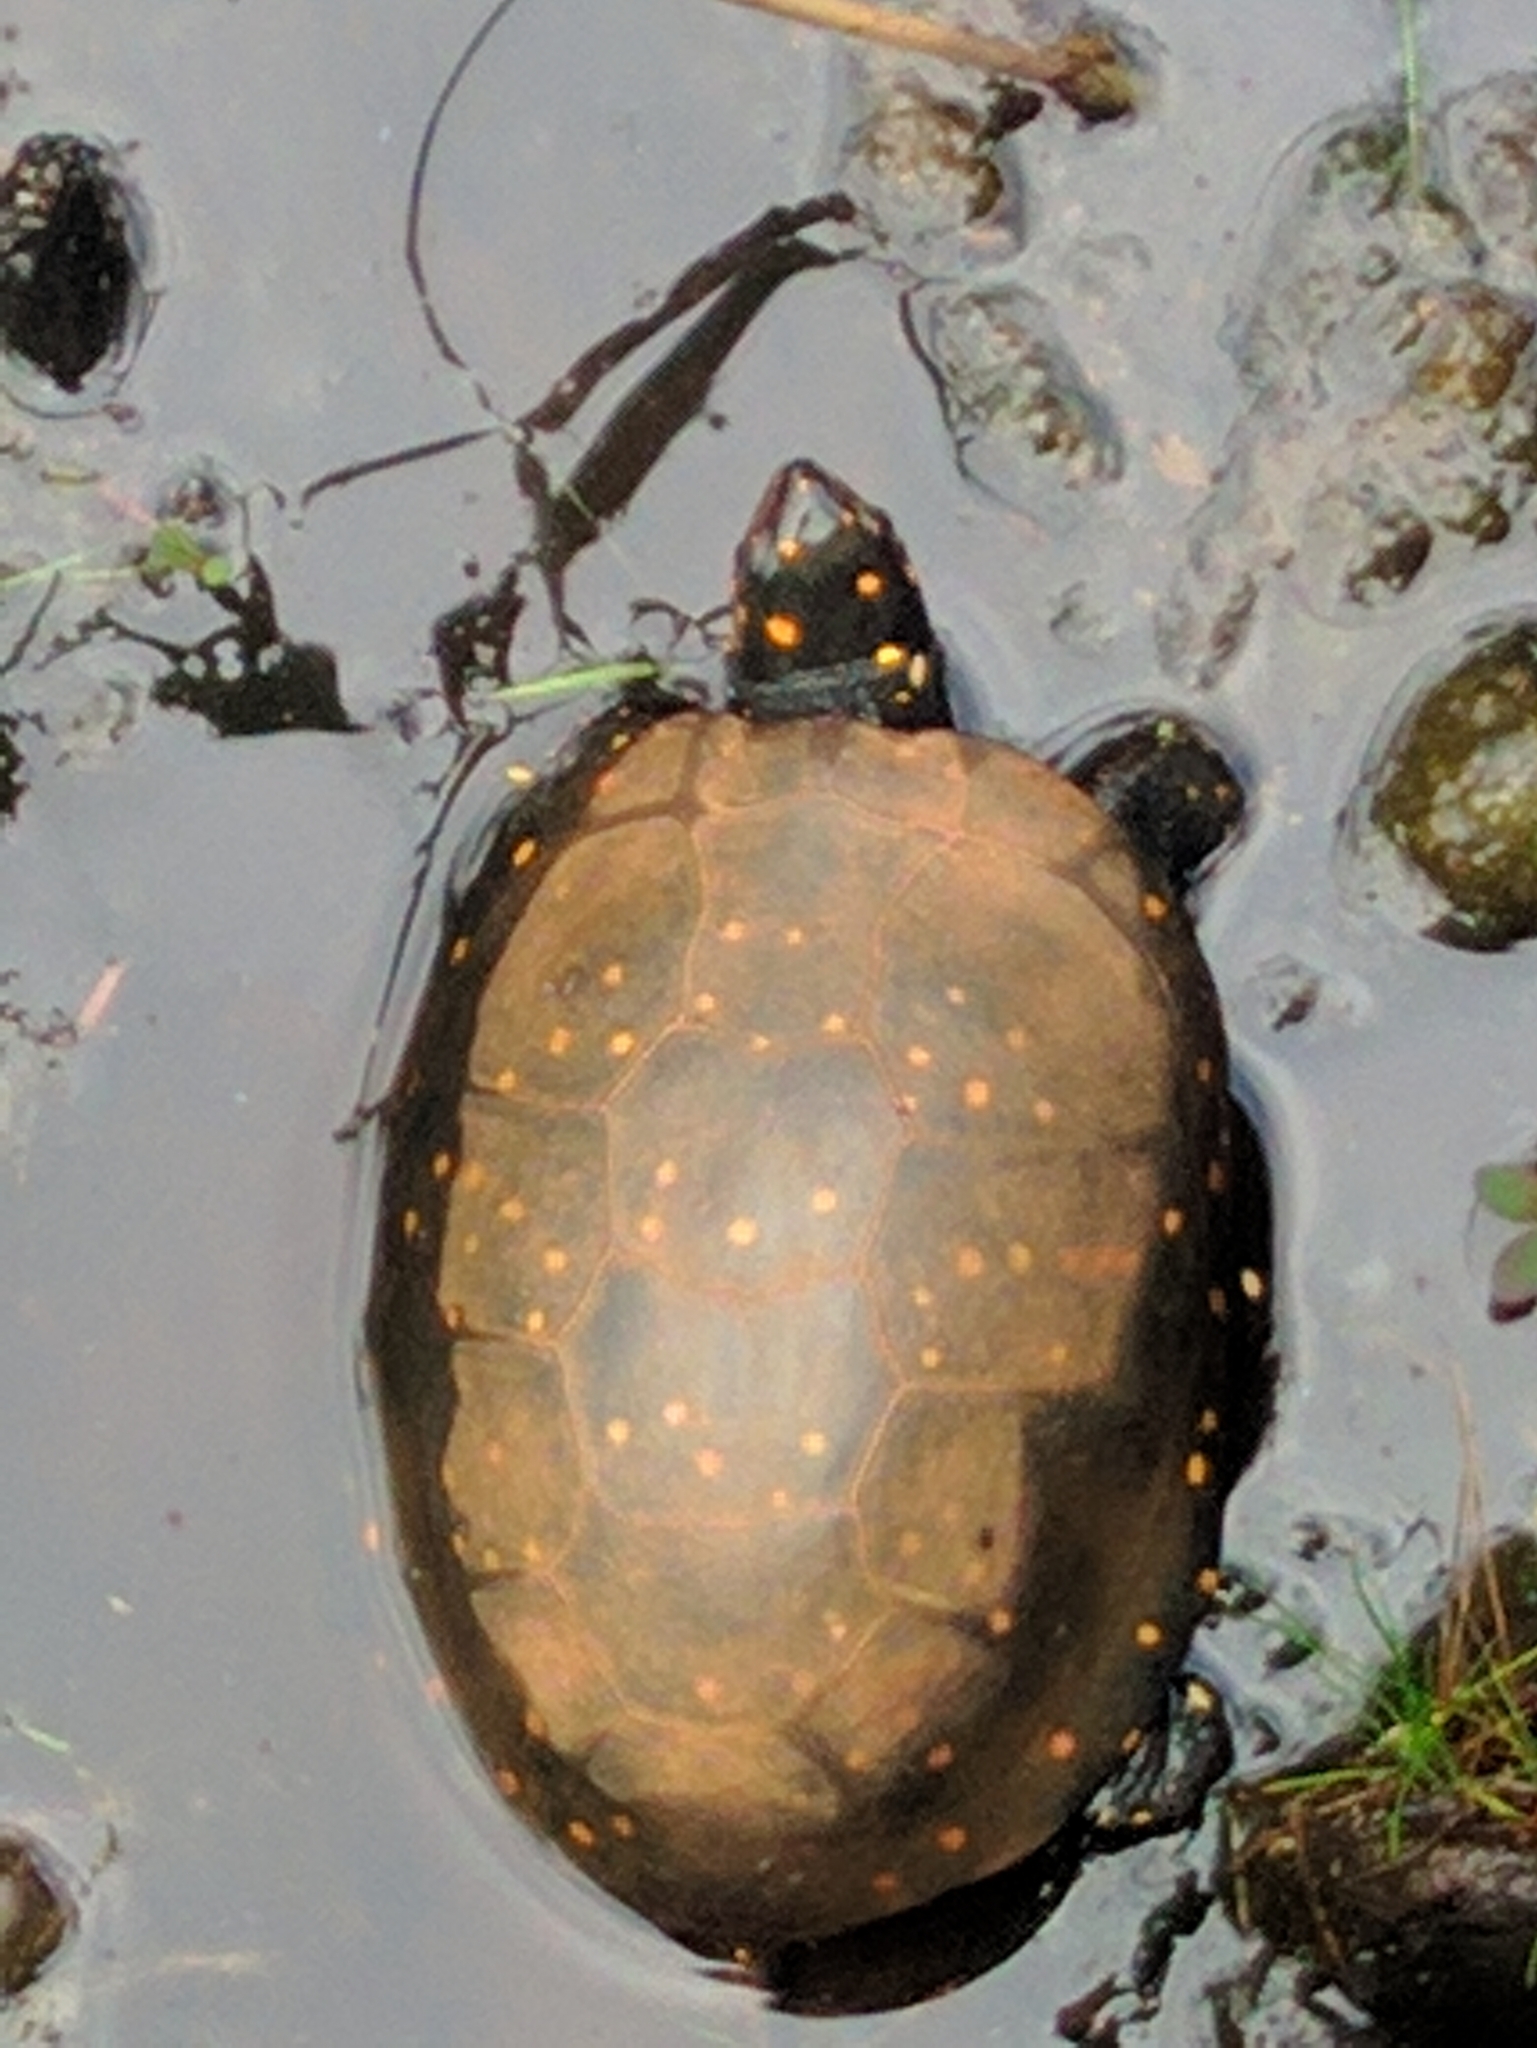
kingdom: Animalia
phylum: Chordata
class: Testudines
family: Emydidae
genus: Clemmys
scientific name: Clemmys guttata
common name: Spotted turtle
